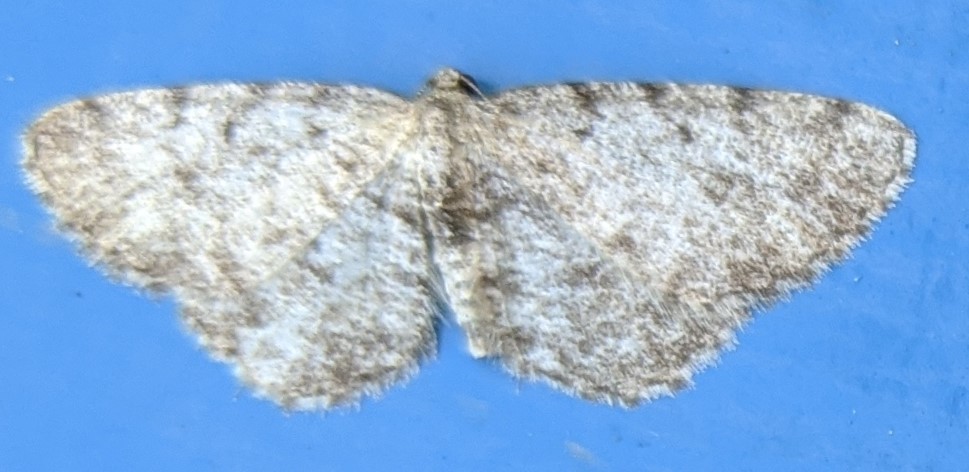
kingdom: Animalia
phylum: Arthropoda
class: Insecta
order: Lepidoptera
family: Geometridae
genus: Aethalura
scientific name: Aethalura intertexta
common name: Four-barred gray
